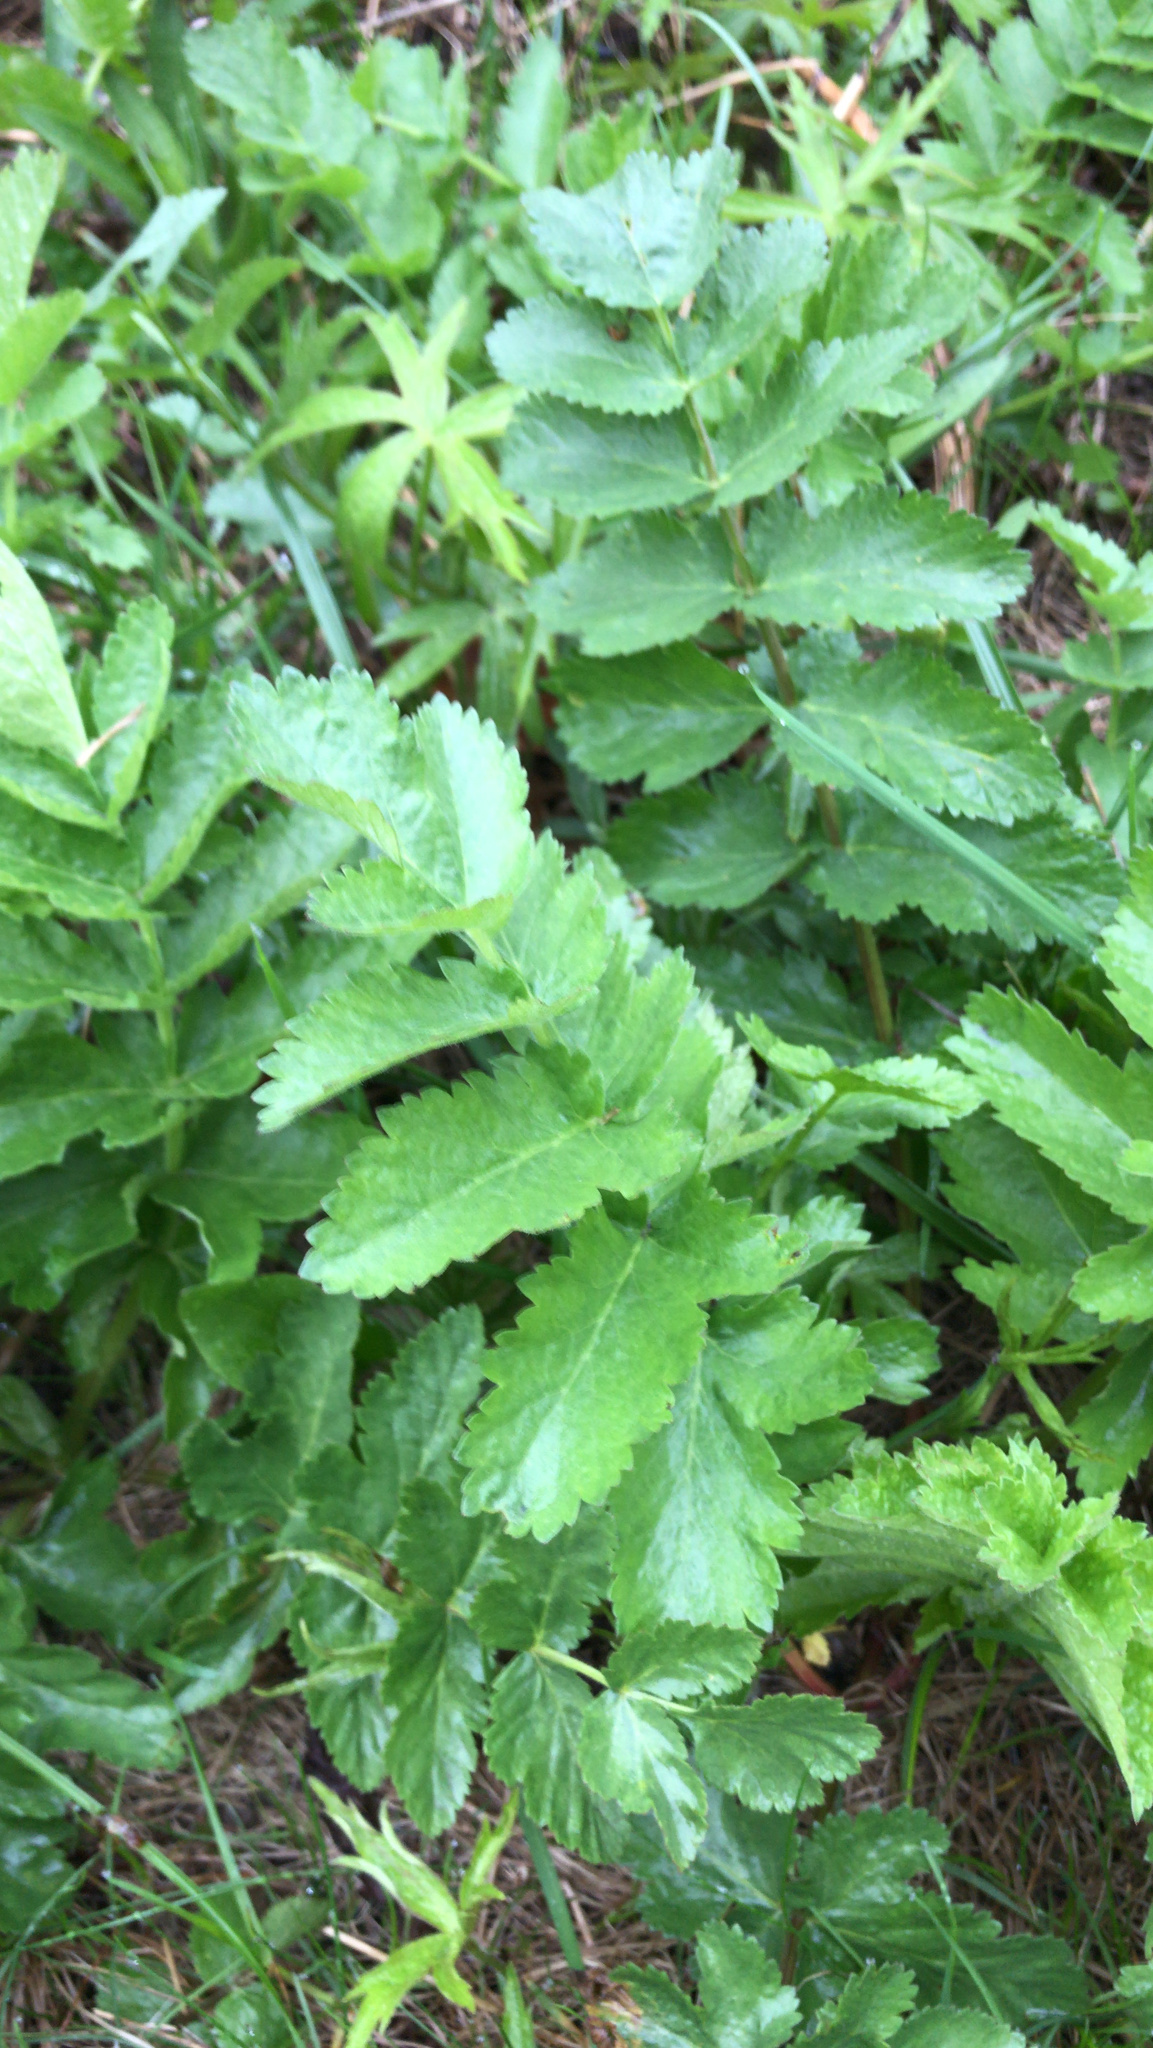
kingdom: Plantae
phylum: Tracheophyta
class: Magnoliopsida
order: Apiales
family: Apiaceae
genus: Pastinaca
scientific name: Pastinaca sativa
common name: Wild parsnip
